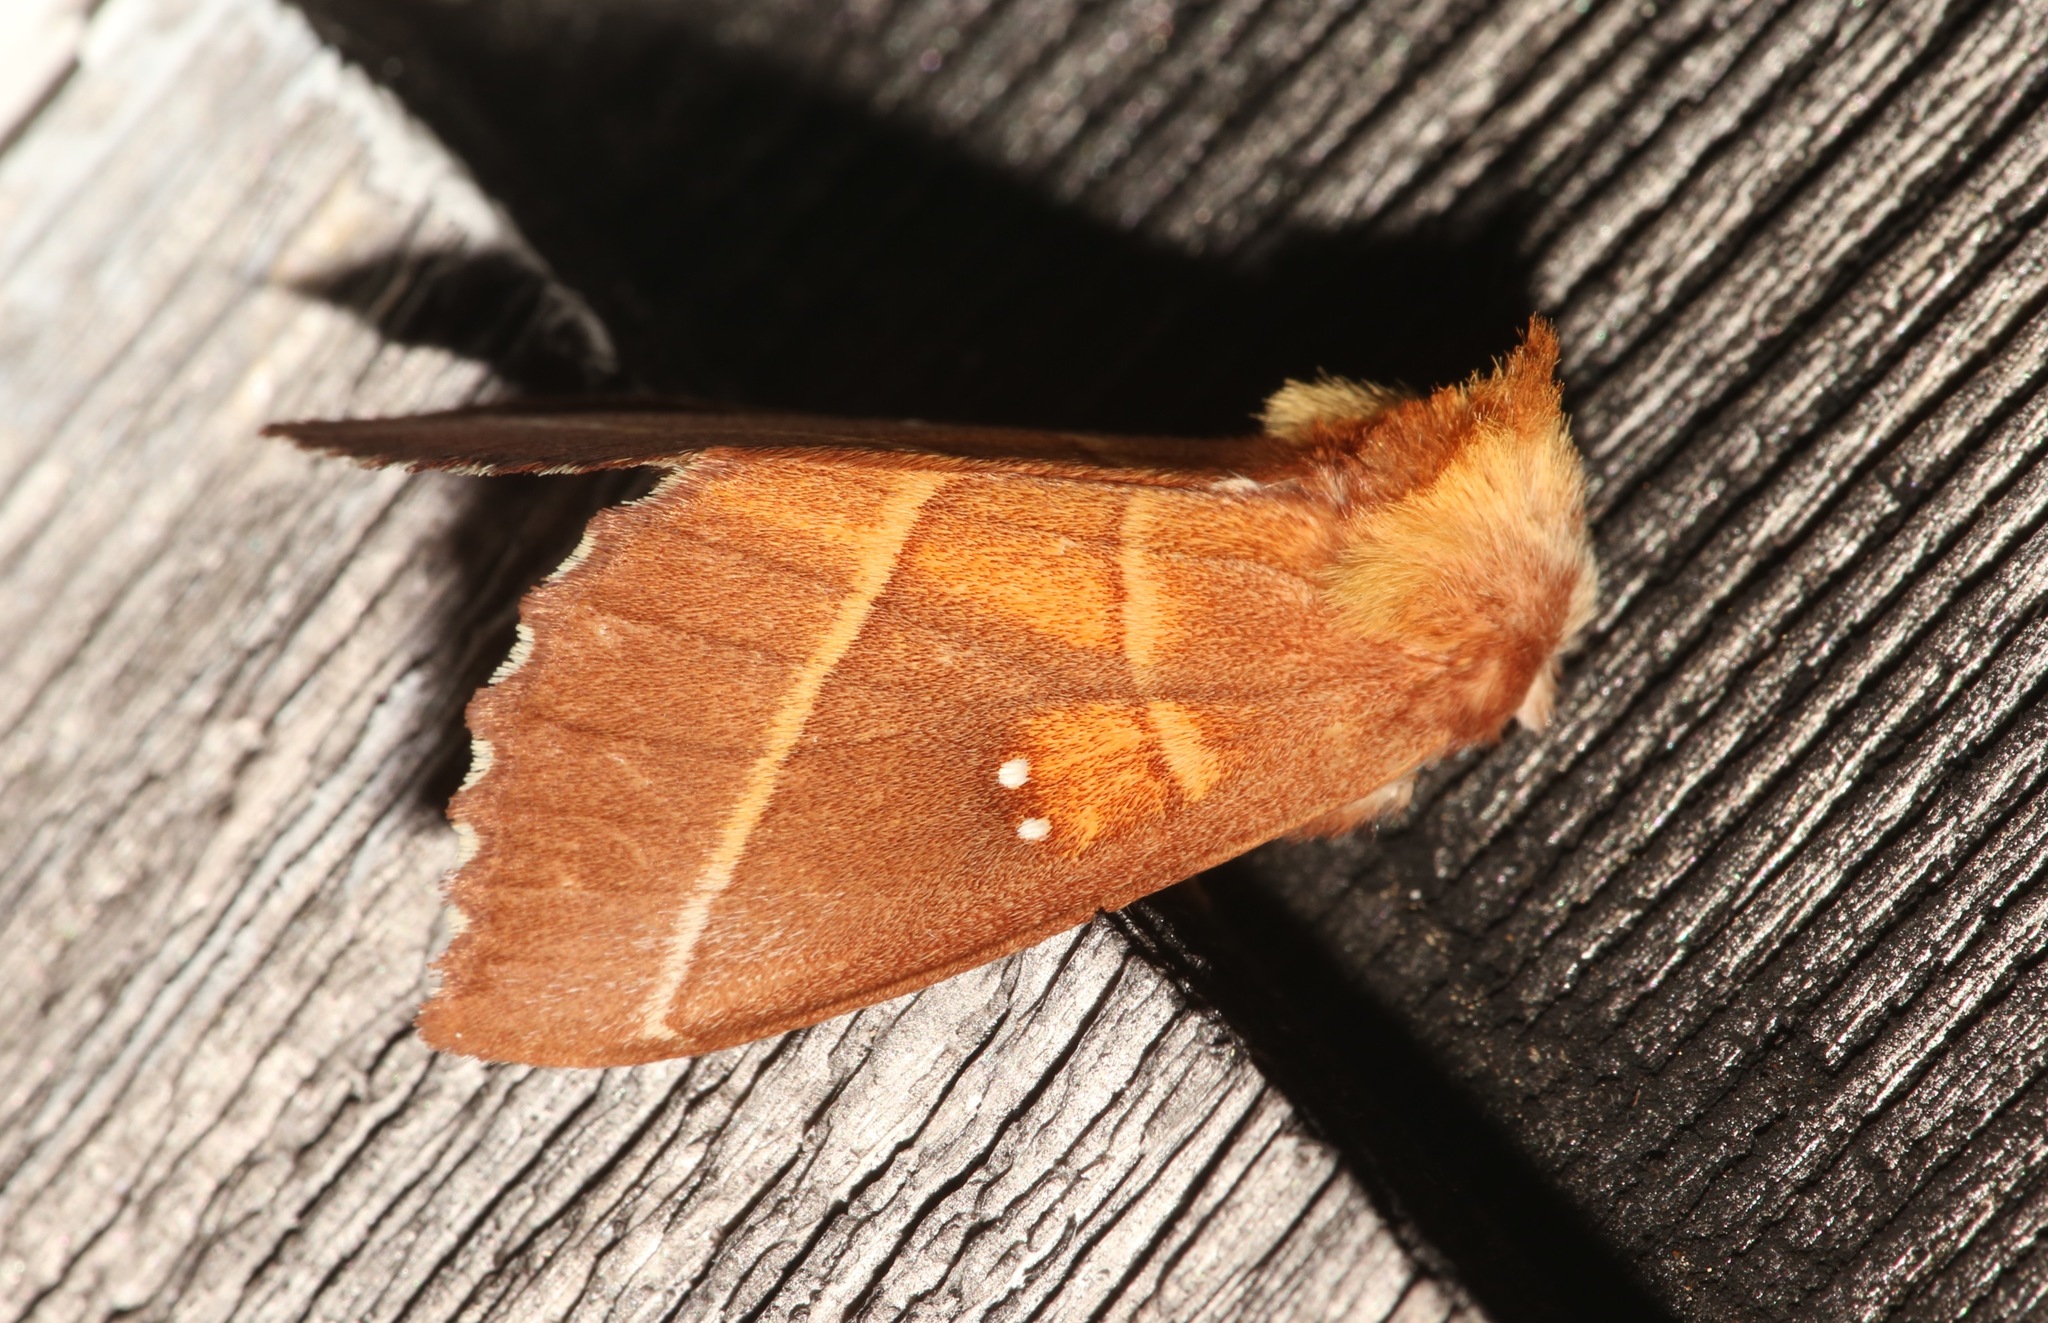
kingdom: Animalia
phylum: Arthropoda
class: Insecta
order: Lepidoptera
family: Notodontidae
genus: Nadata
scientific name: Nadata gibbosa
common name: White-dotted prominent
